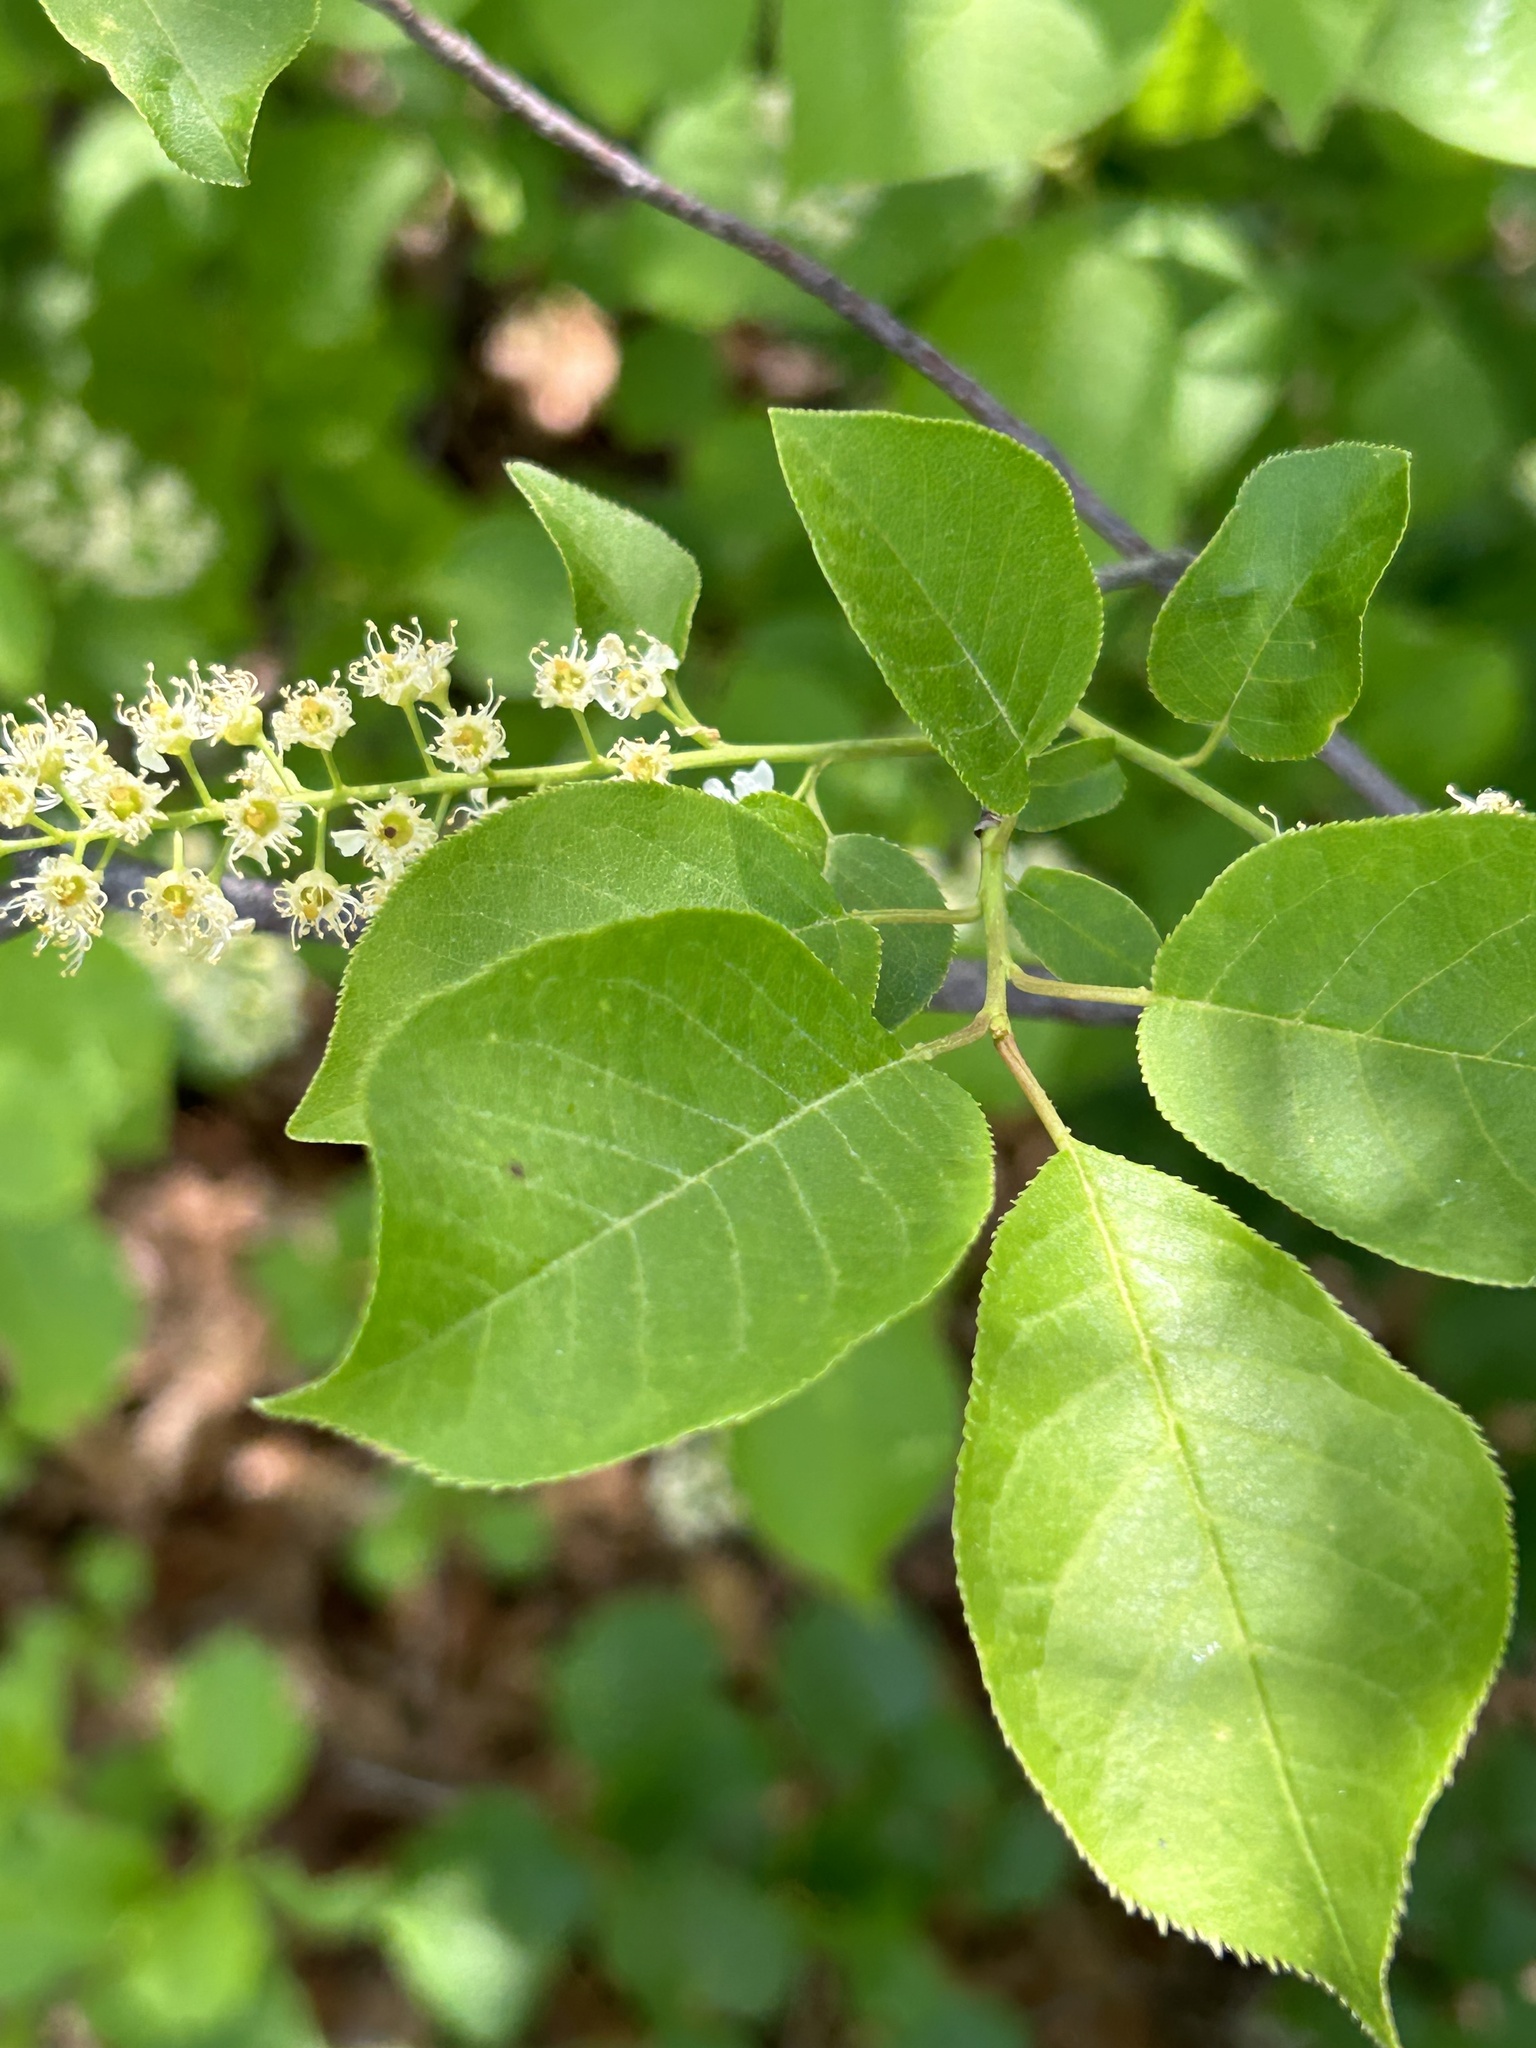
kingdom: Plantae
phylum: Tracheophyta
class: Magnoliopsida
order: Rosales
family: Rosaceae
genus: Prunus
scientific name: Prunus virginiana
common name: Chokecherry
